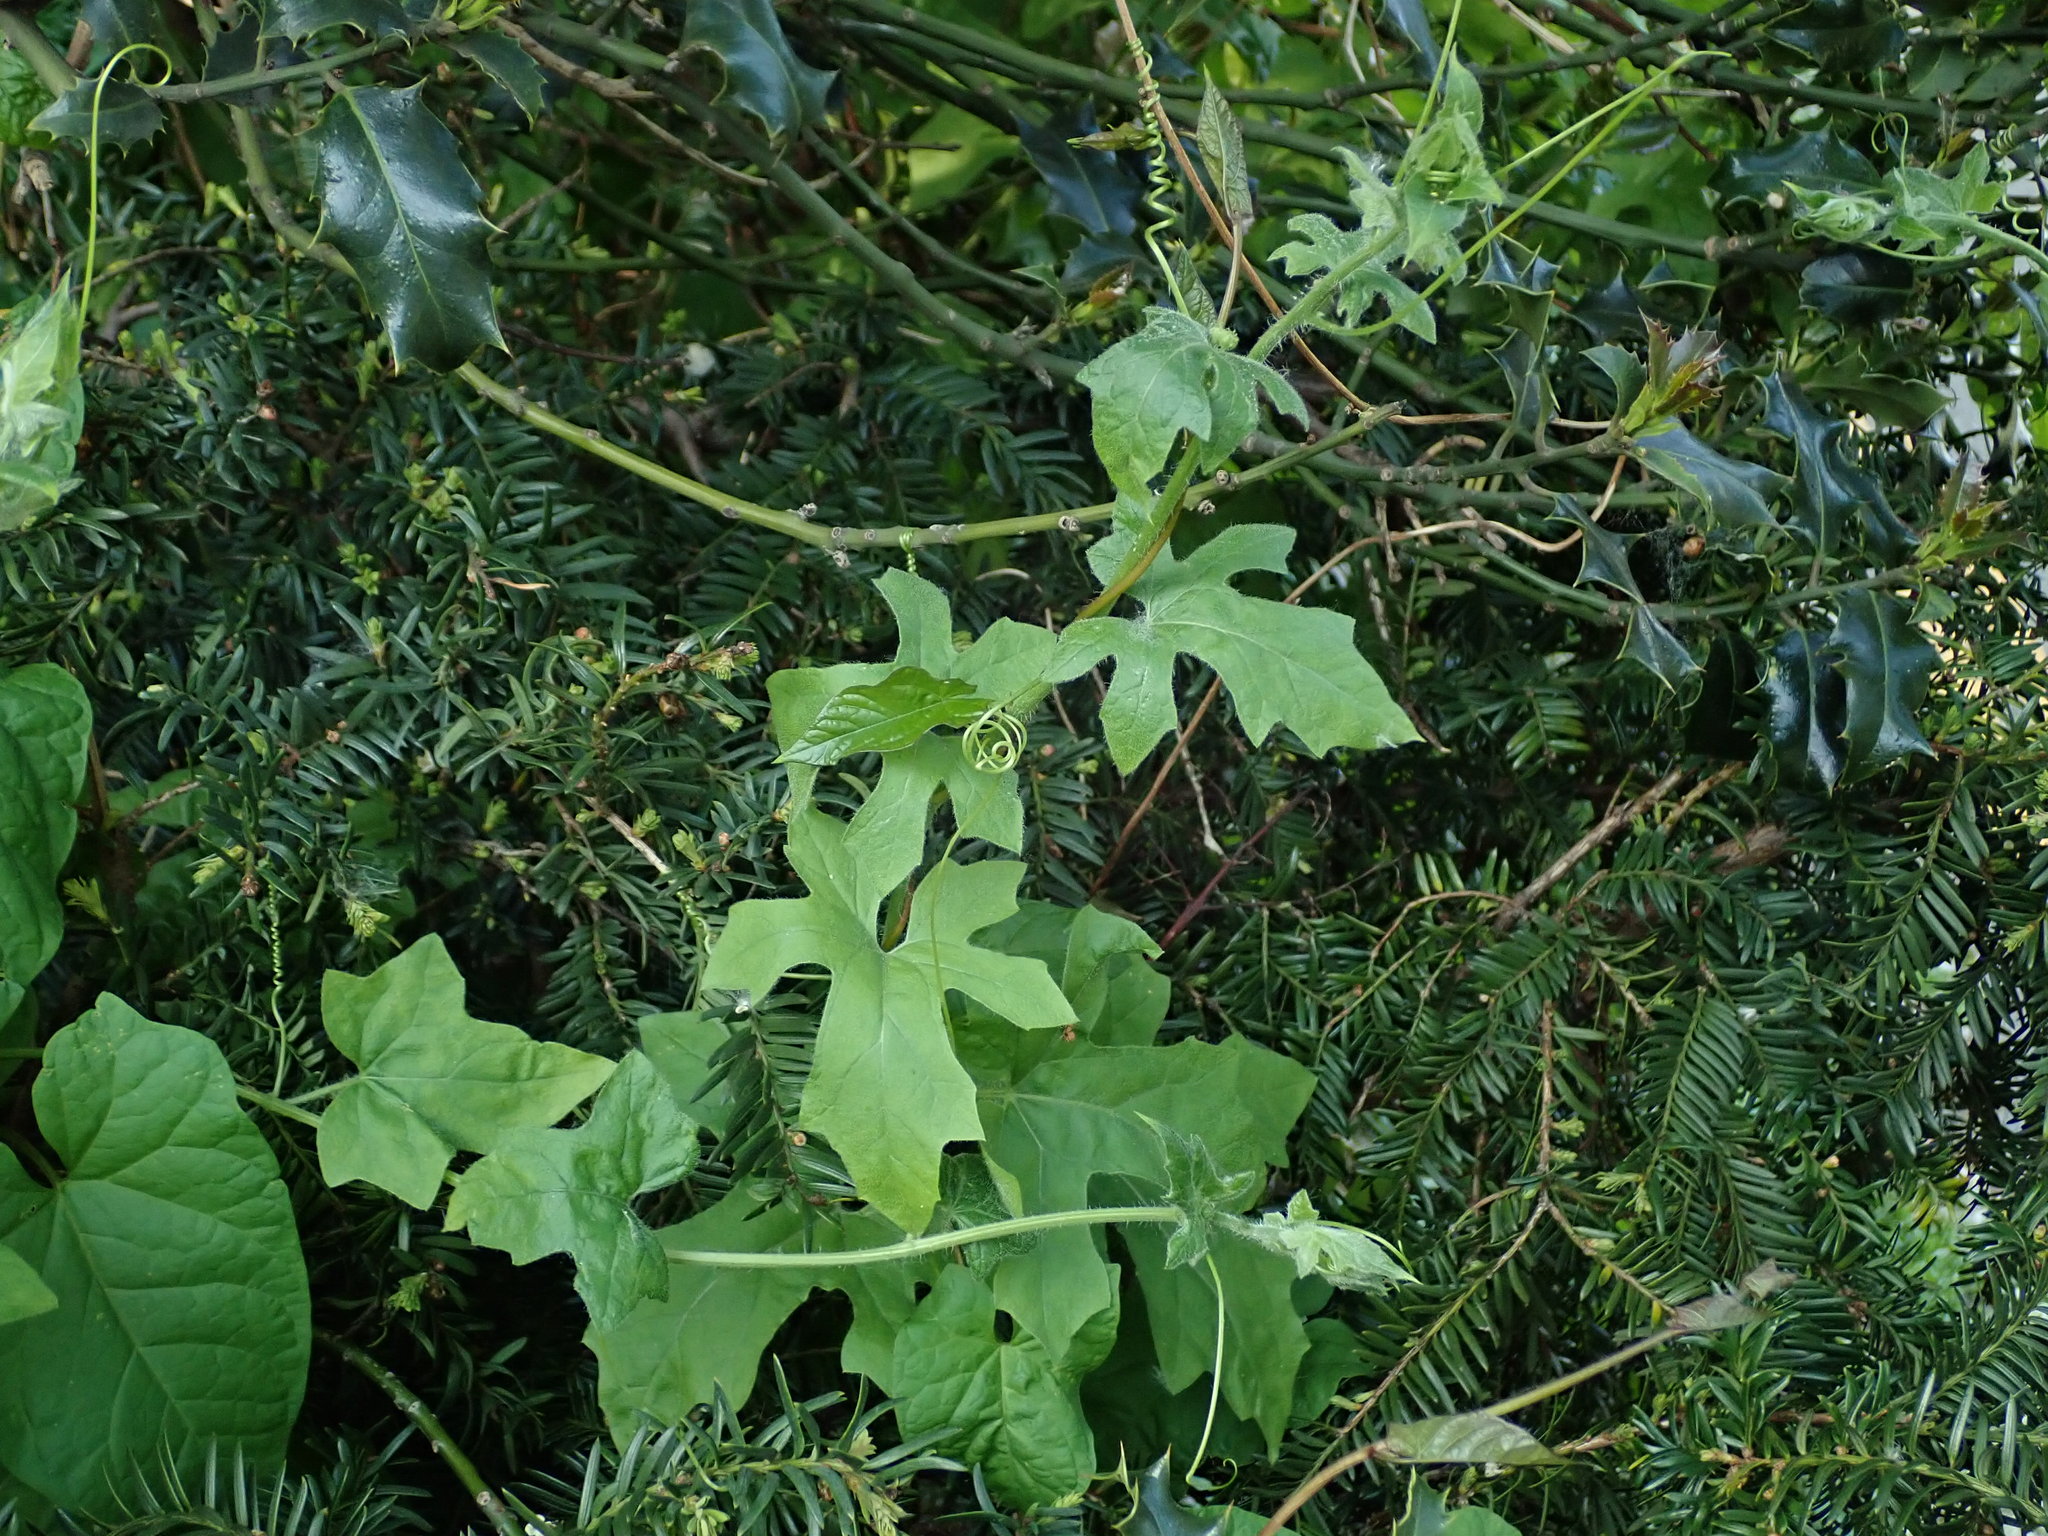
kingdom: Plantae
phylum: Tracheophyta
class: Magnoliopsida
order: Cucurbitales
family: Cucurbitaceae
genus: Bryonia
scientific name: Bryonia cretica
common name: Cretan bryony
